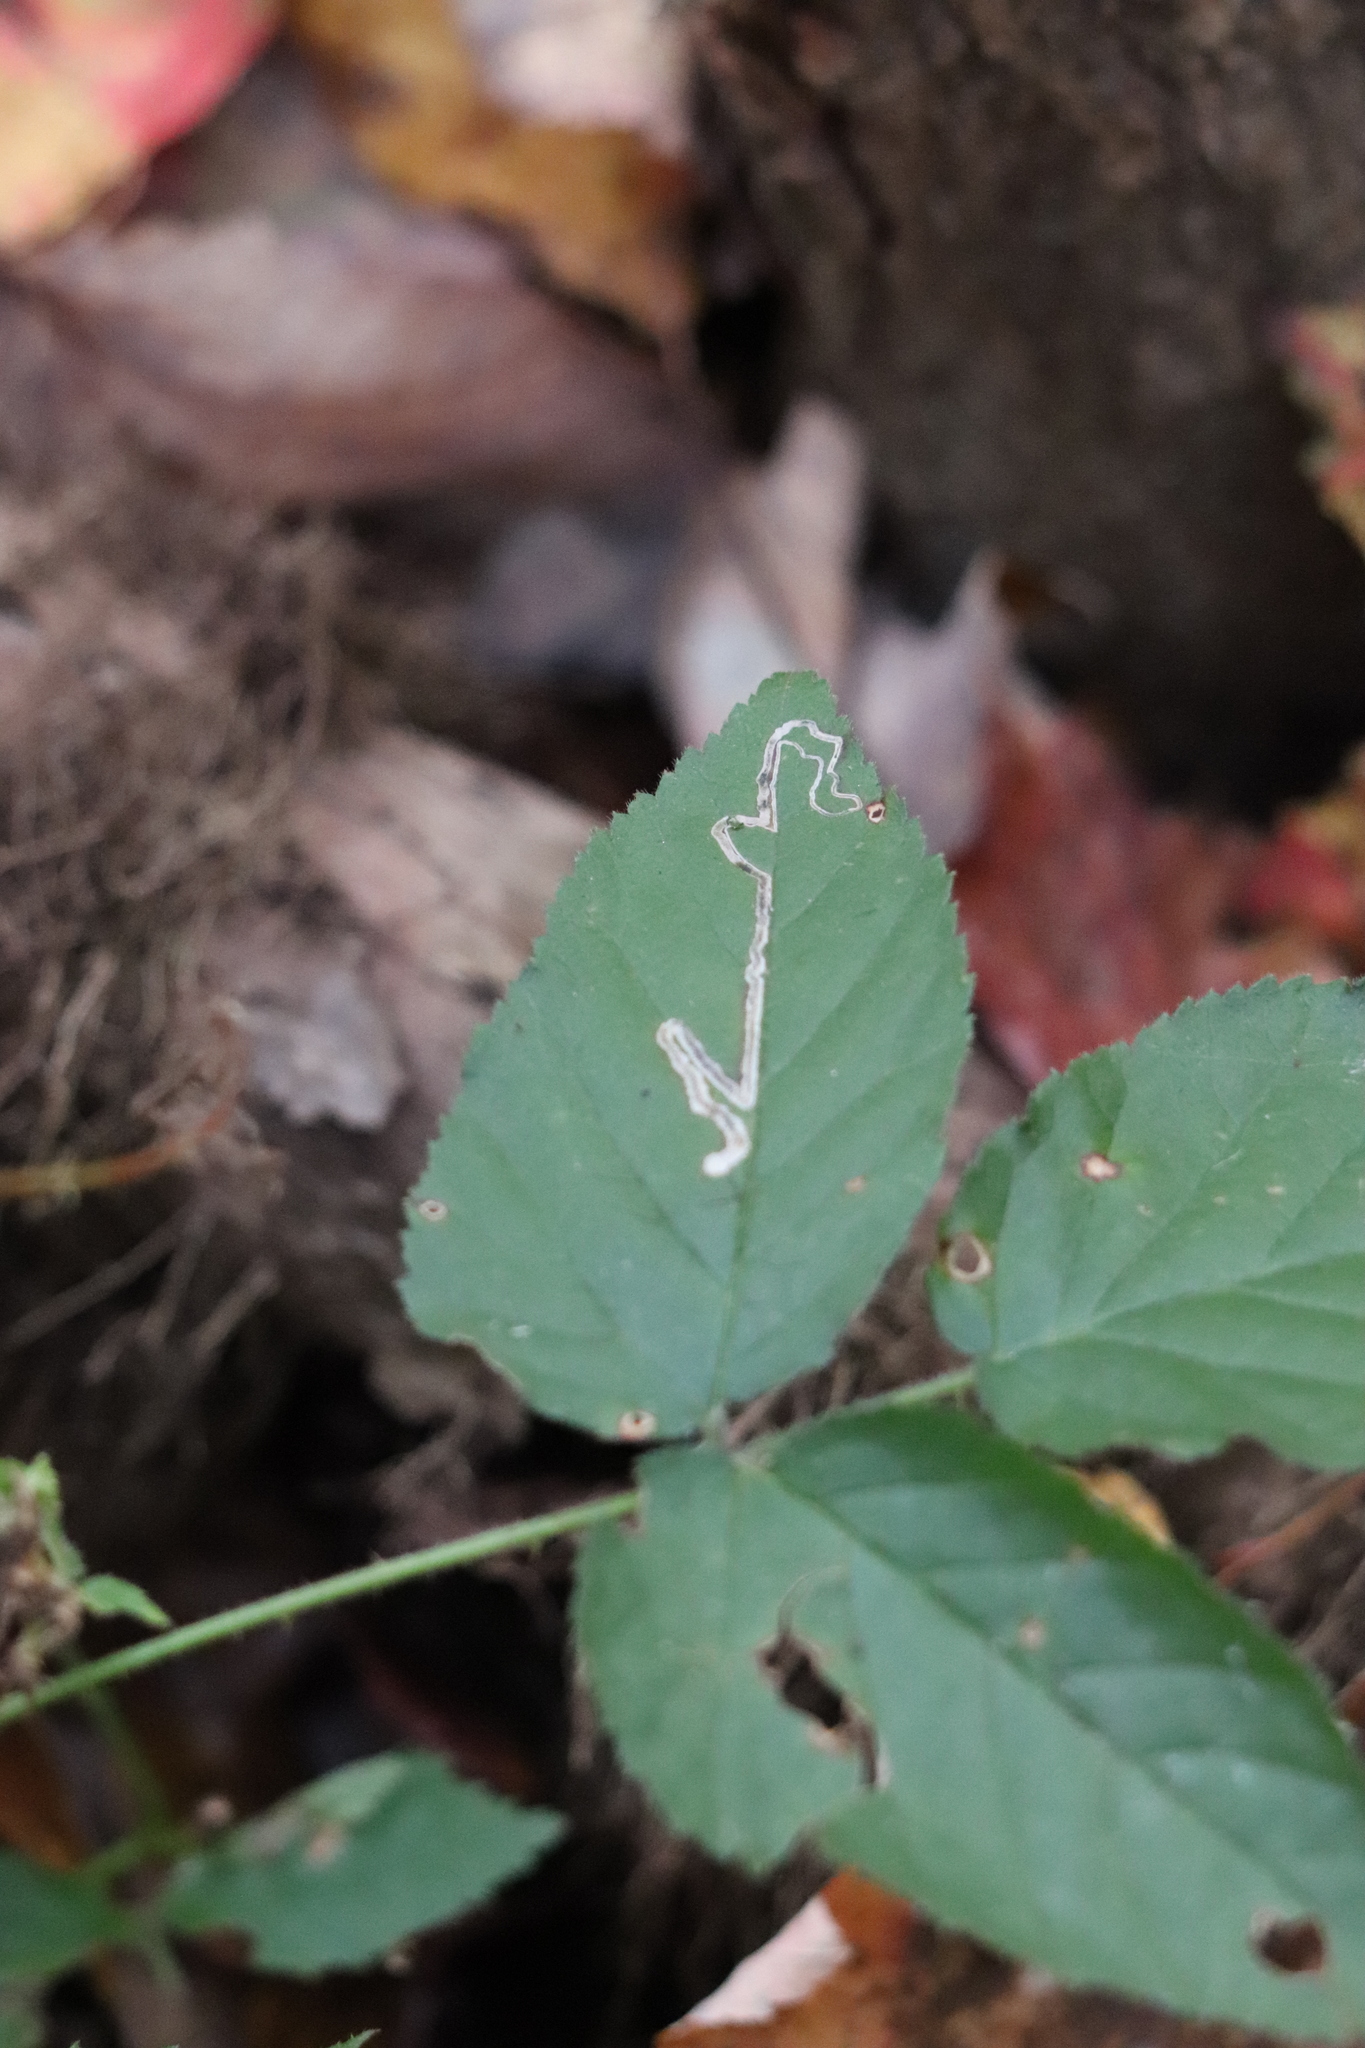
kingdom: Animalia
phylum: Arthropoda
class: Insecta
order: Lepidoptera
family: Nepticulidae
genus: Stigmella
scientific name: Stigmella villosella
